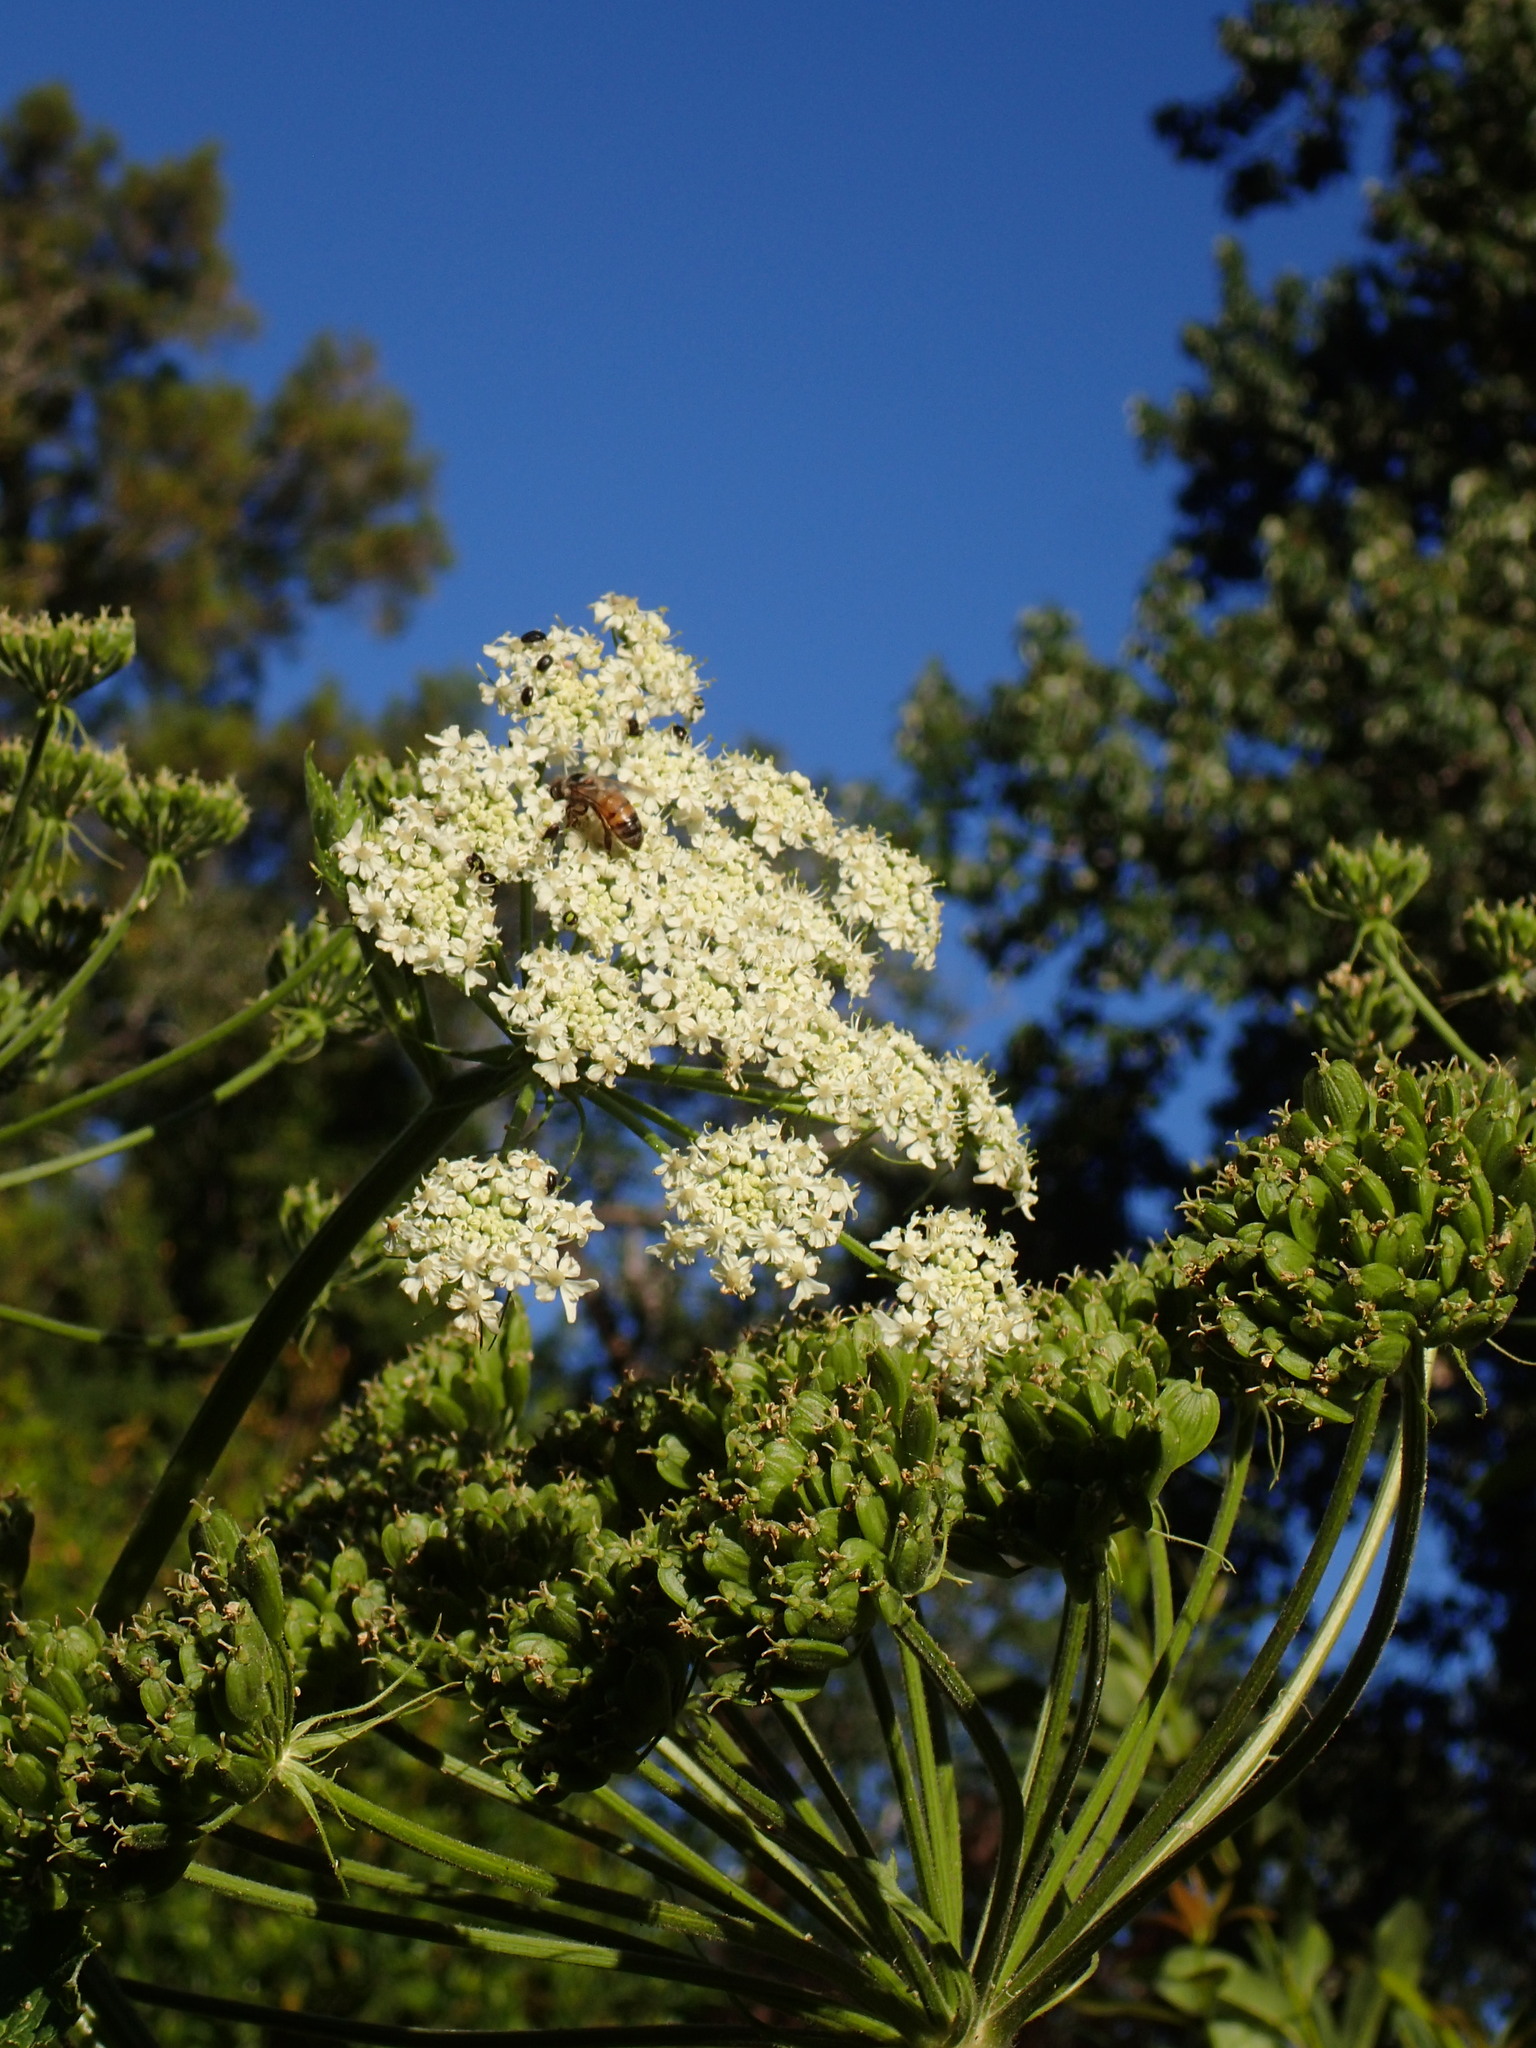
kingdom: Plantae
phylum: Tracheophyta
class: Magnoliopsida
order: Apiales
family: Apiaceae
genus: Heracleum
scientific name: Heracleum maximum
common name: American cow parsnip
